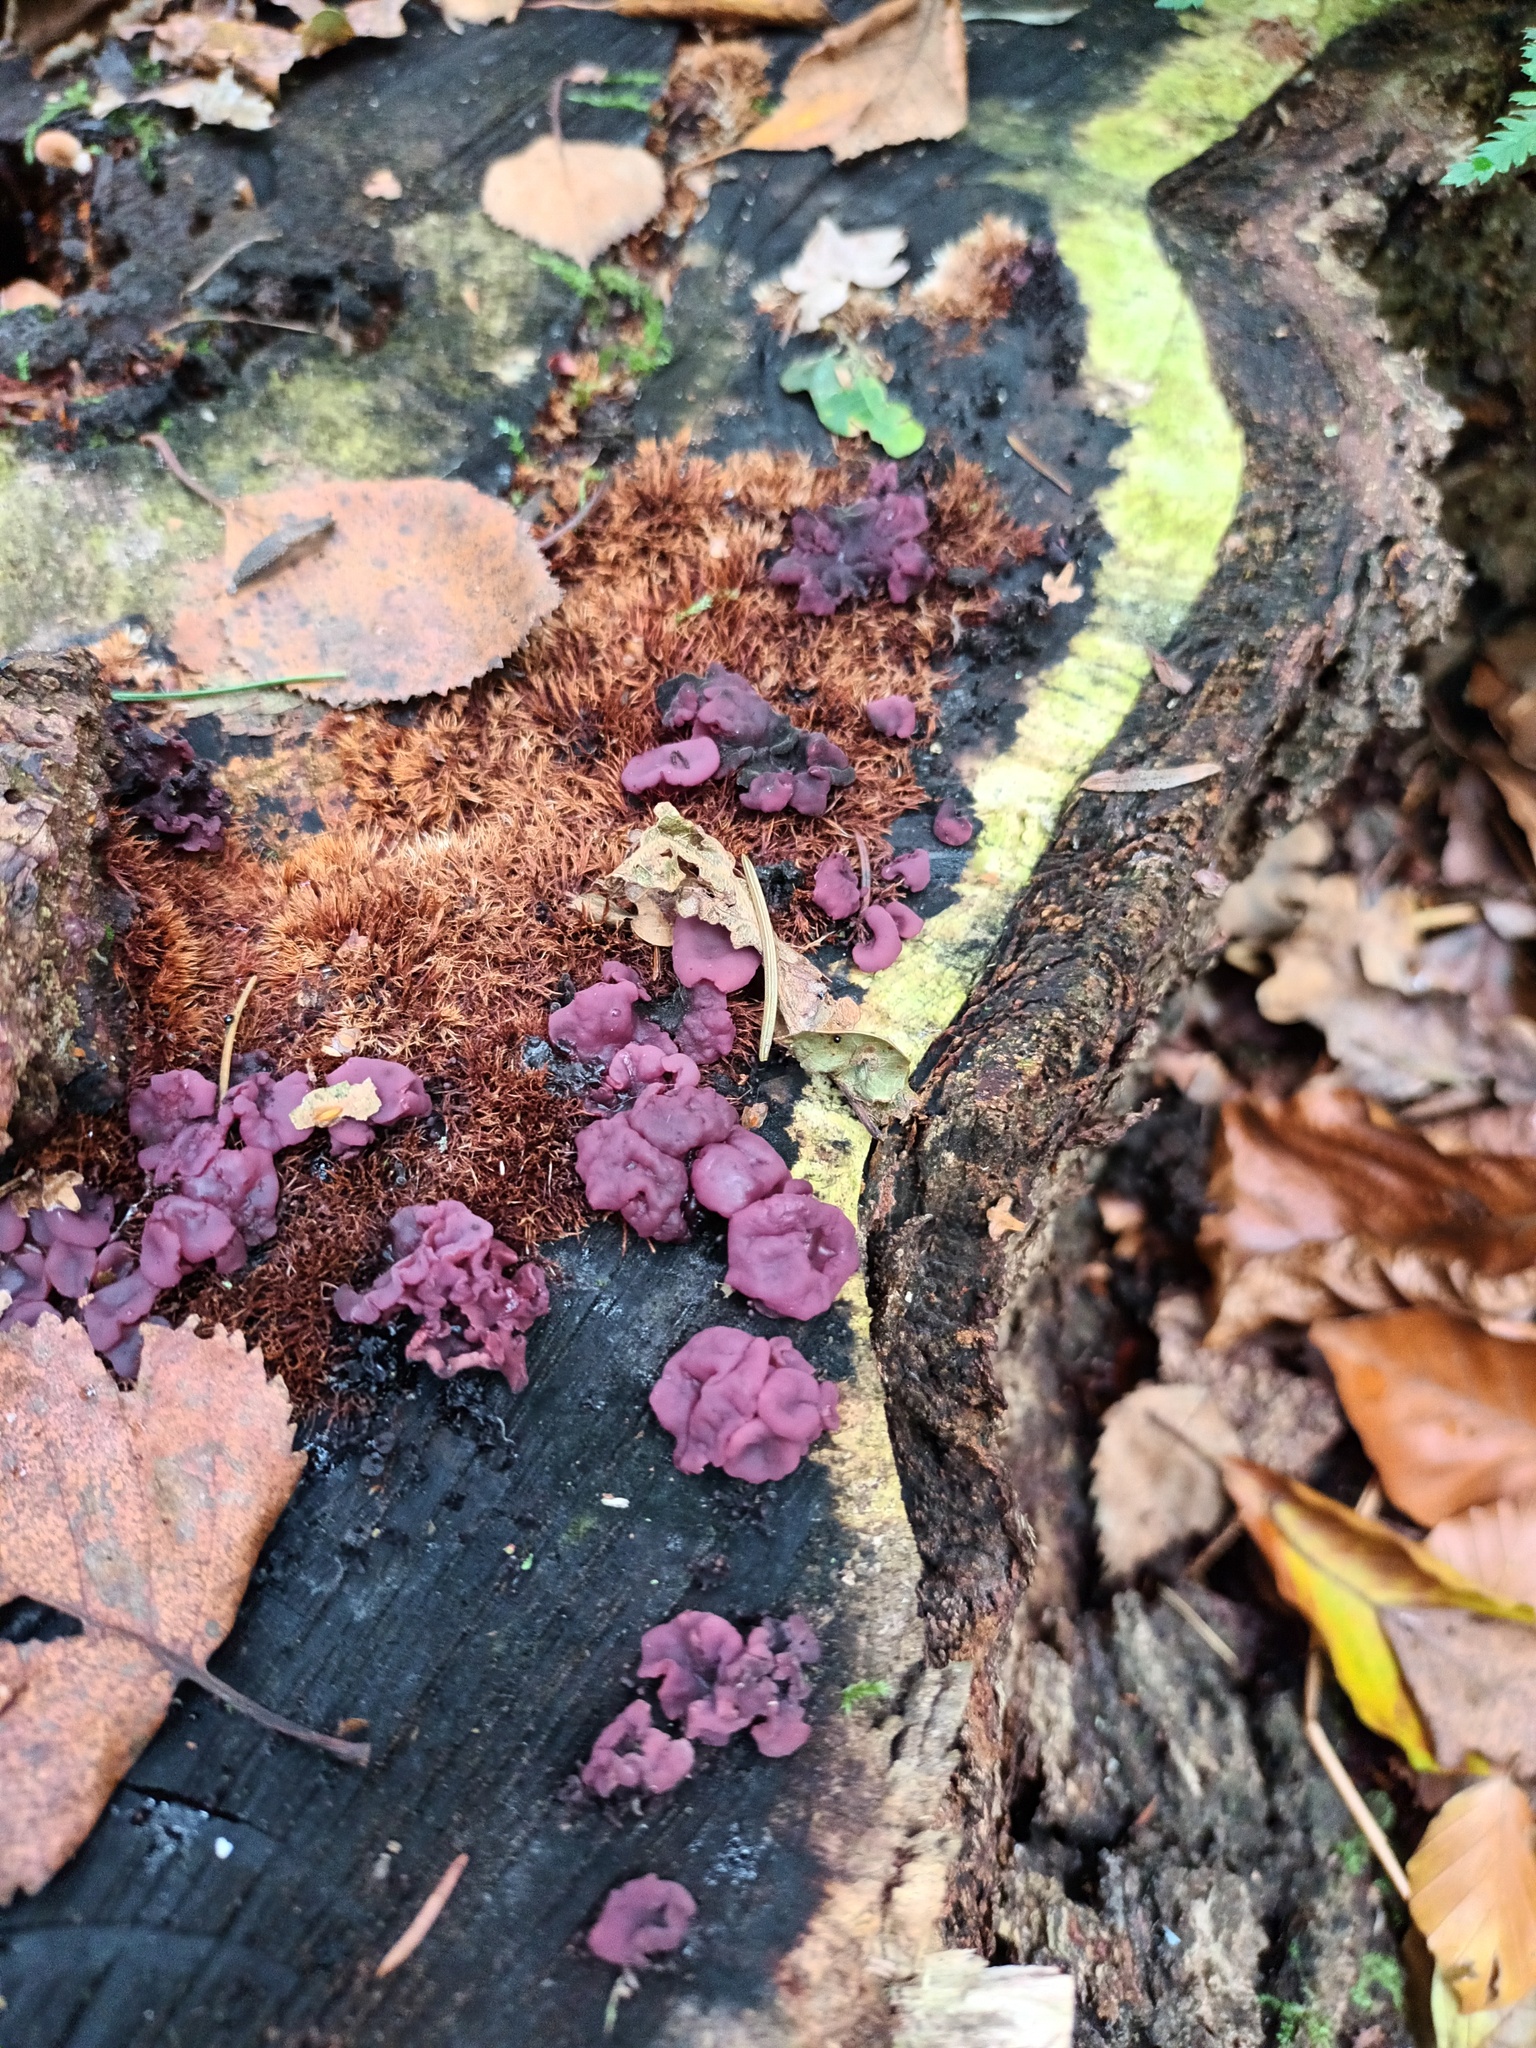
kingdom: Fungi
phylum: Ascomycota
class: Leotiomycetes
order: Helotiales
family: Gelatinodiscaceae
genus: Ascocoryne
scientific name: Ascocoryne sarcoides
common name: Purple jellydisc
